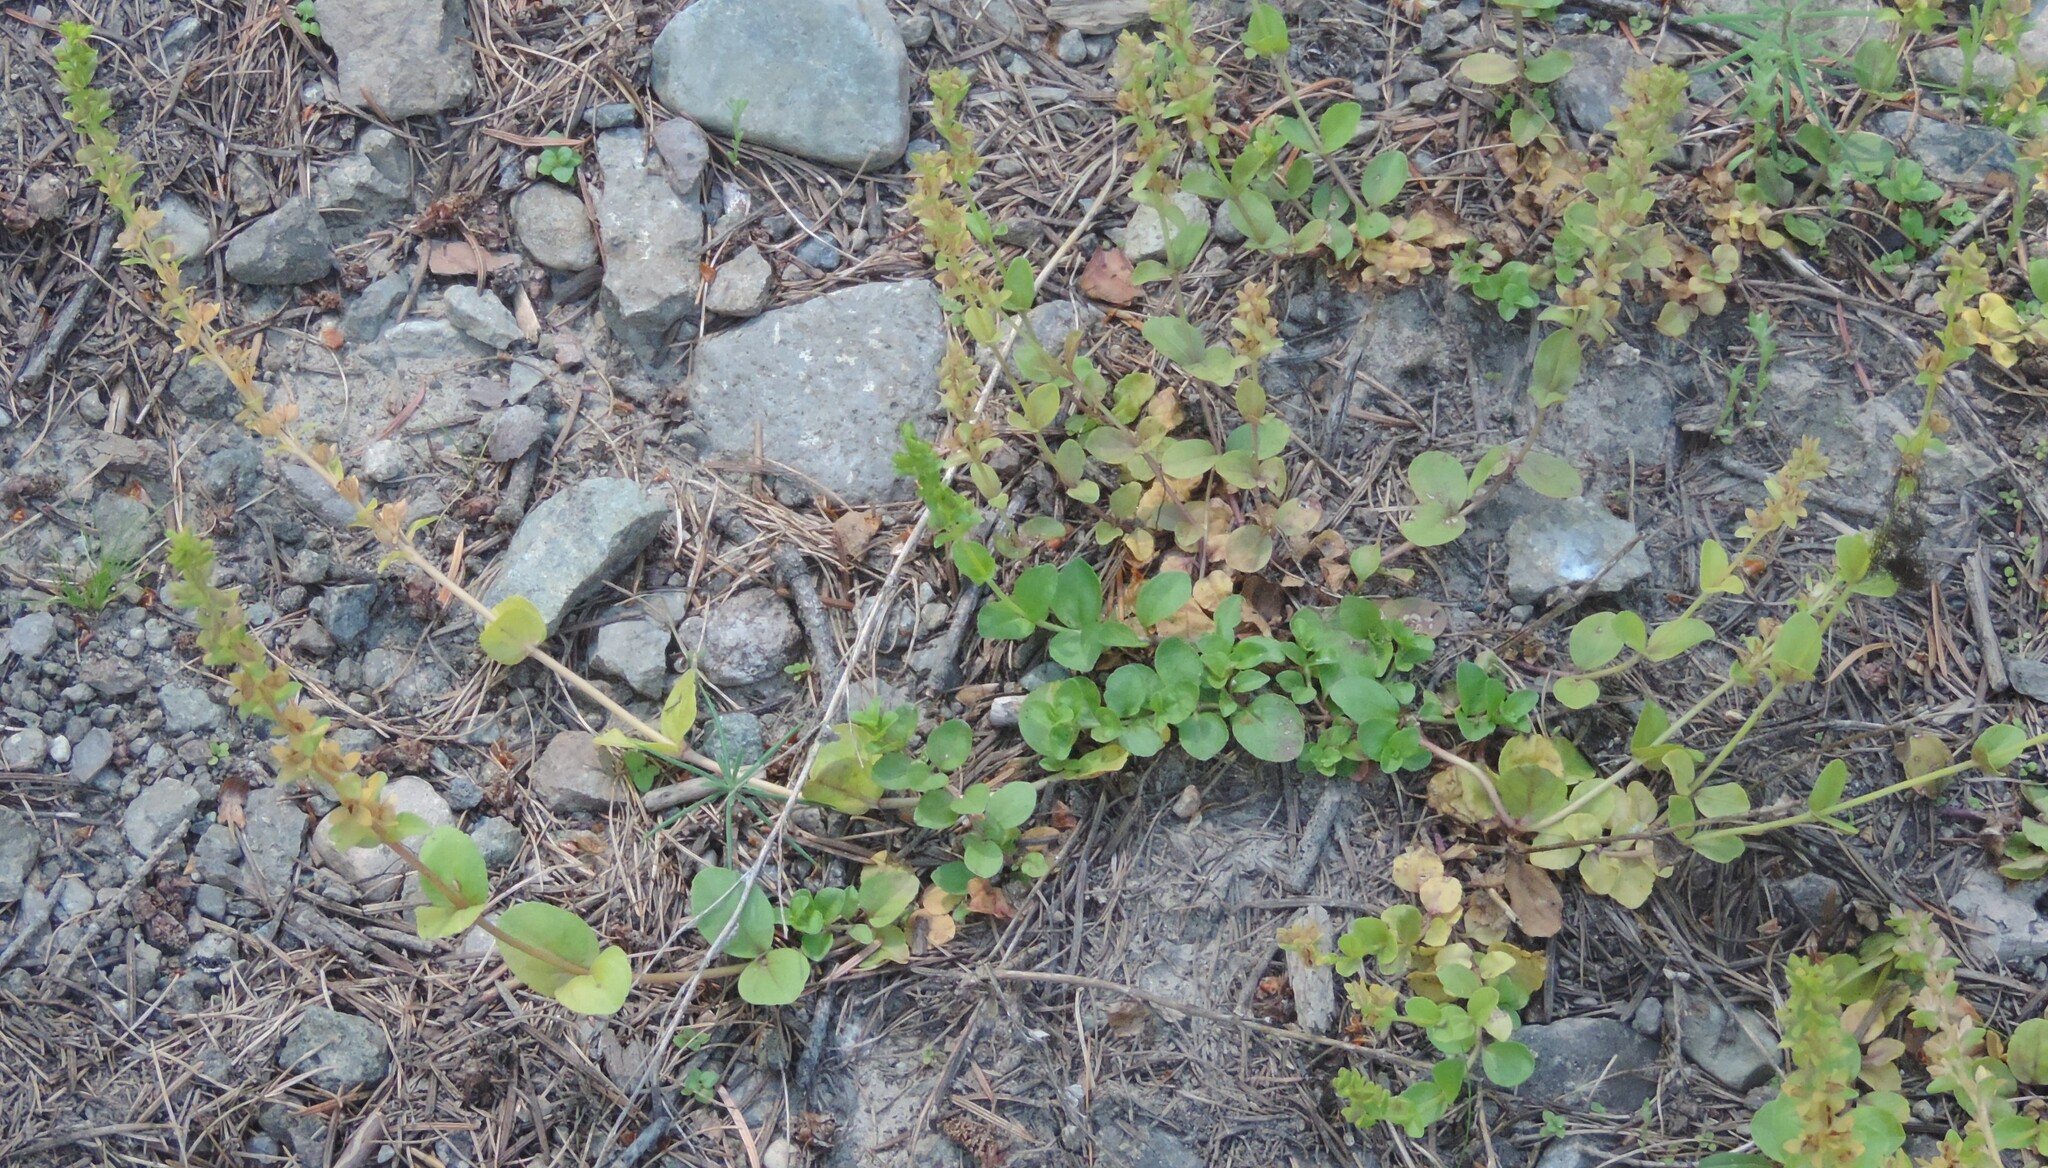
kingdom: Plantae
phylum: Tracheophyta
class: Magnoliopsida
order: Lamiales
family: Plantaginaceae
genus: Veronica
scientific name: Veronica officinalis
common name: Common speedwell
